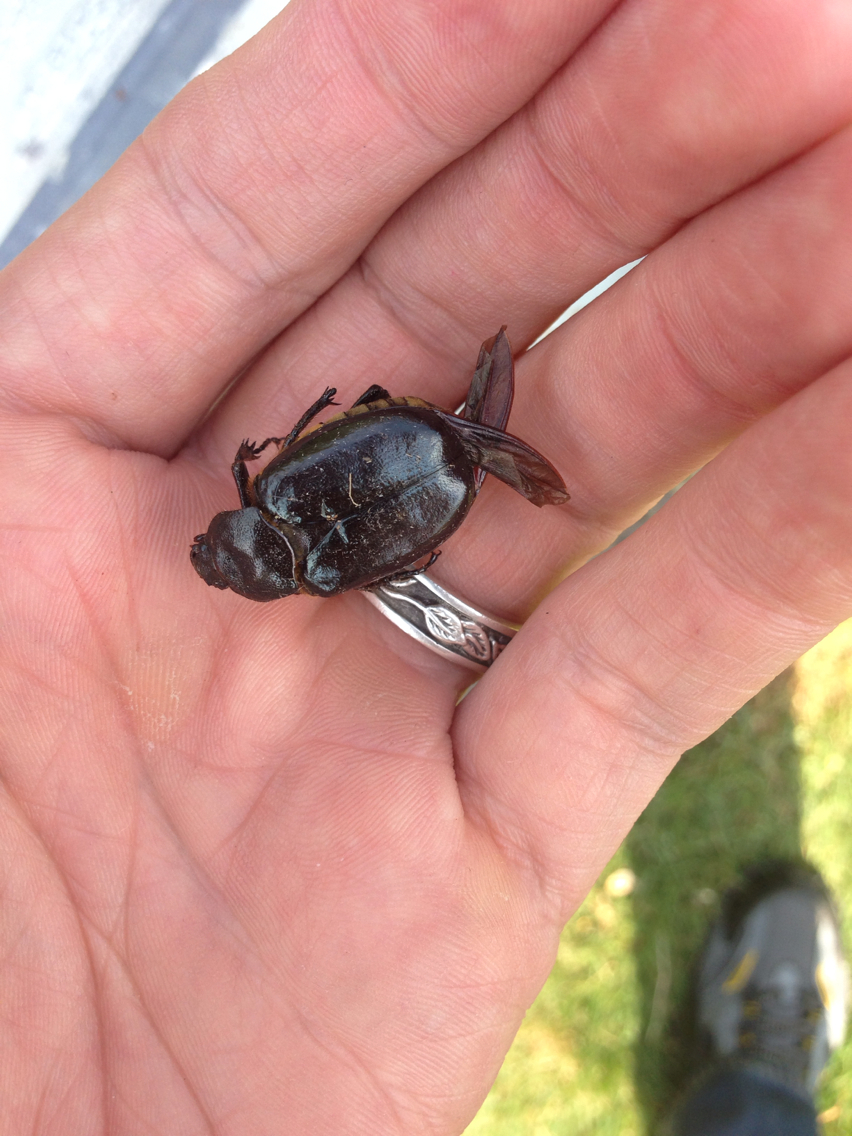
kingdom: Animalia
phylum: Arthropoda
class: Insecta
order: Coleoptera
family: Scarabaeidae
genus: Osmoderma
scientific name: Osmoderma eremicola
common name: Hermit flower beetle
